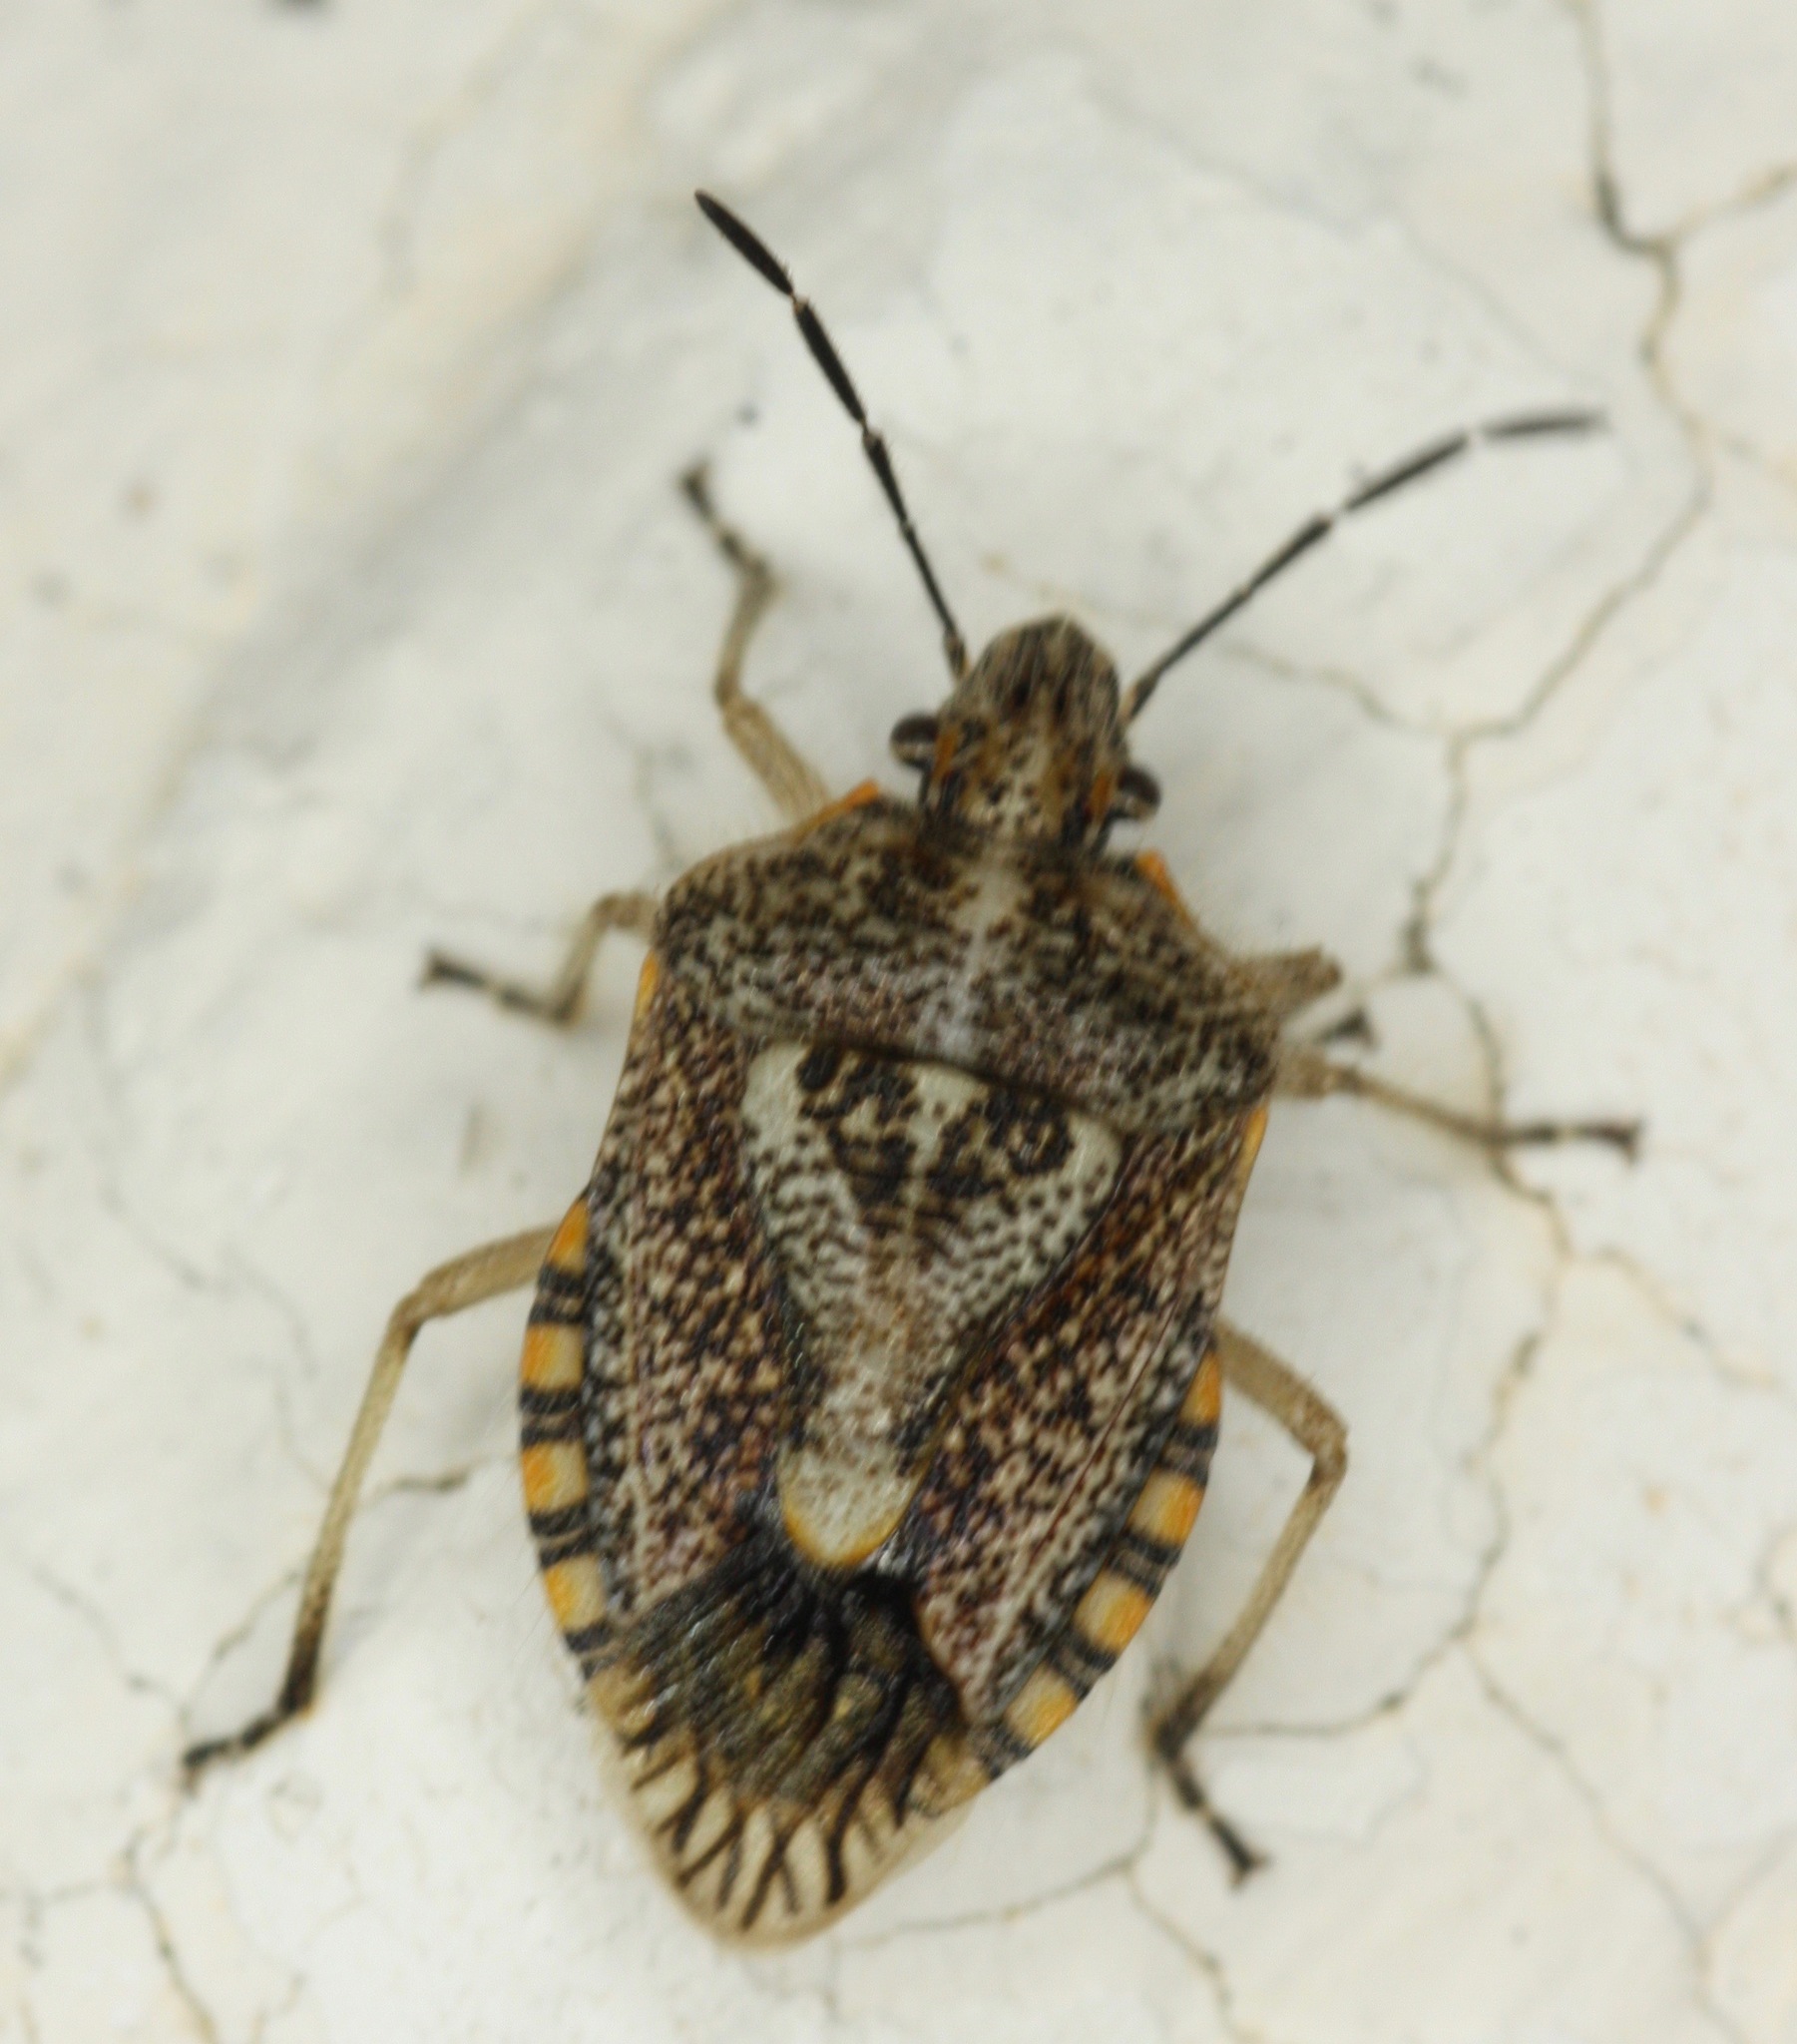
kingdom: Animalia
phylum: Arthropoda
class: Insecta
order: Hemiptera
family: Pentatomidae
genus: Agonoscelis
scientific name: Agonoscelis puberula
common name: African cluster bug
